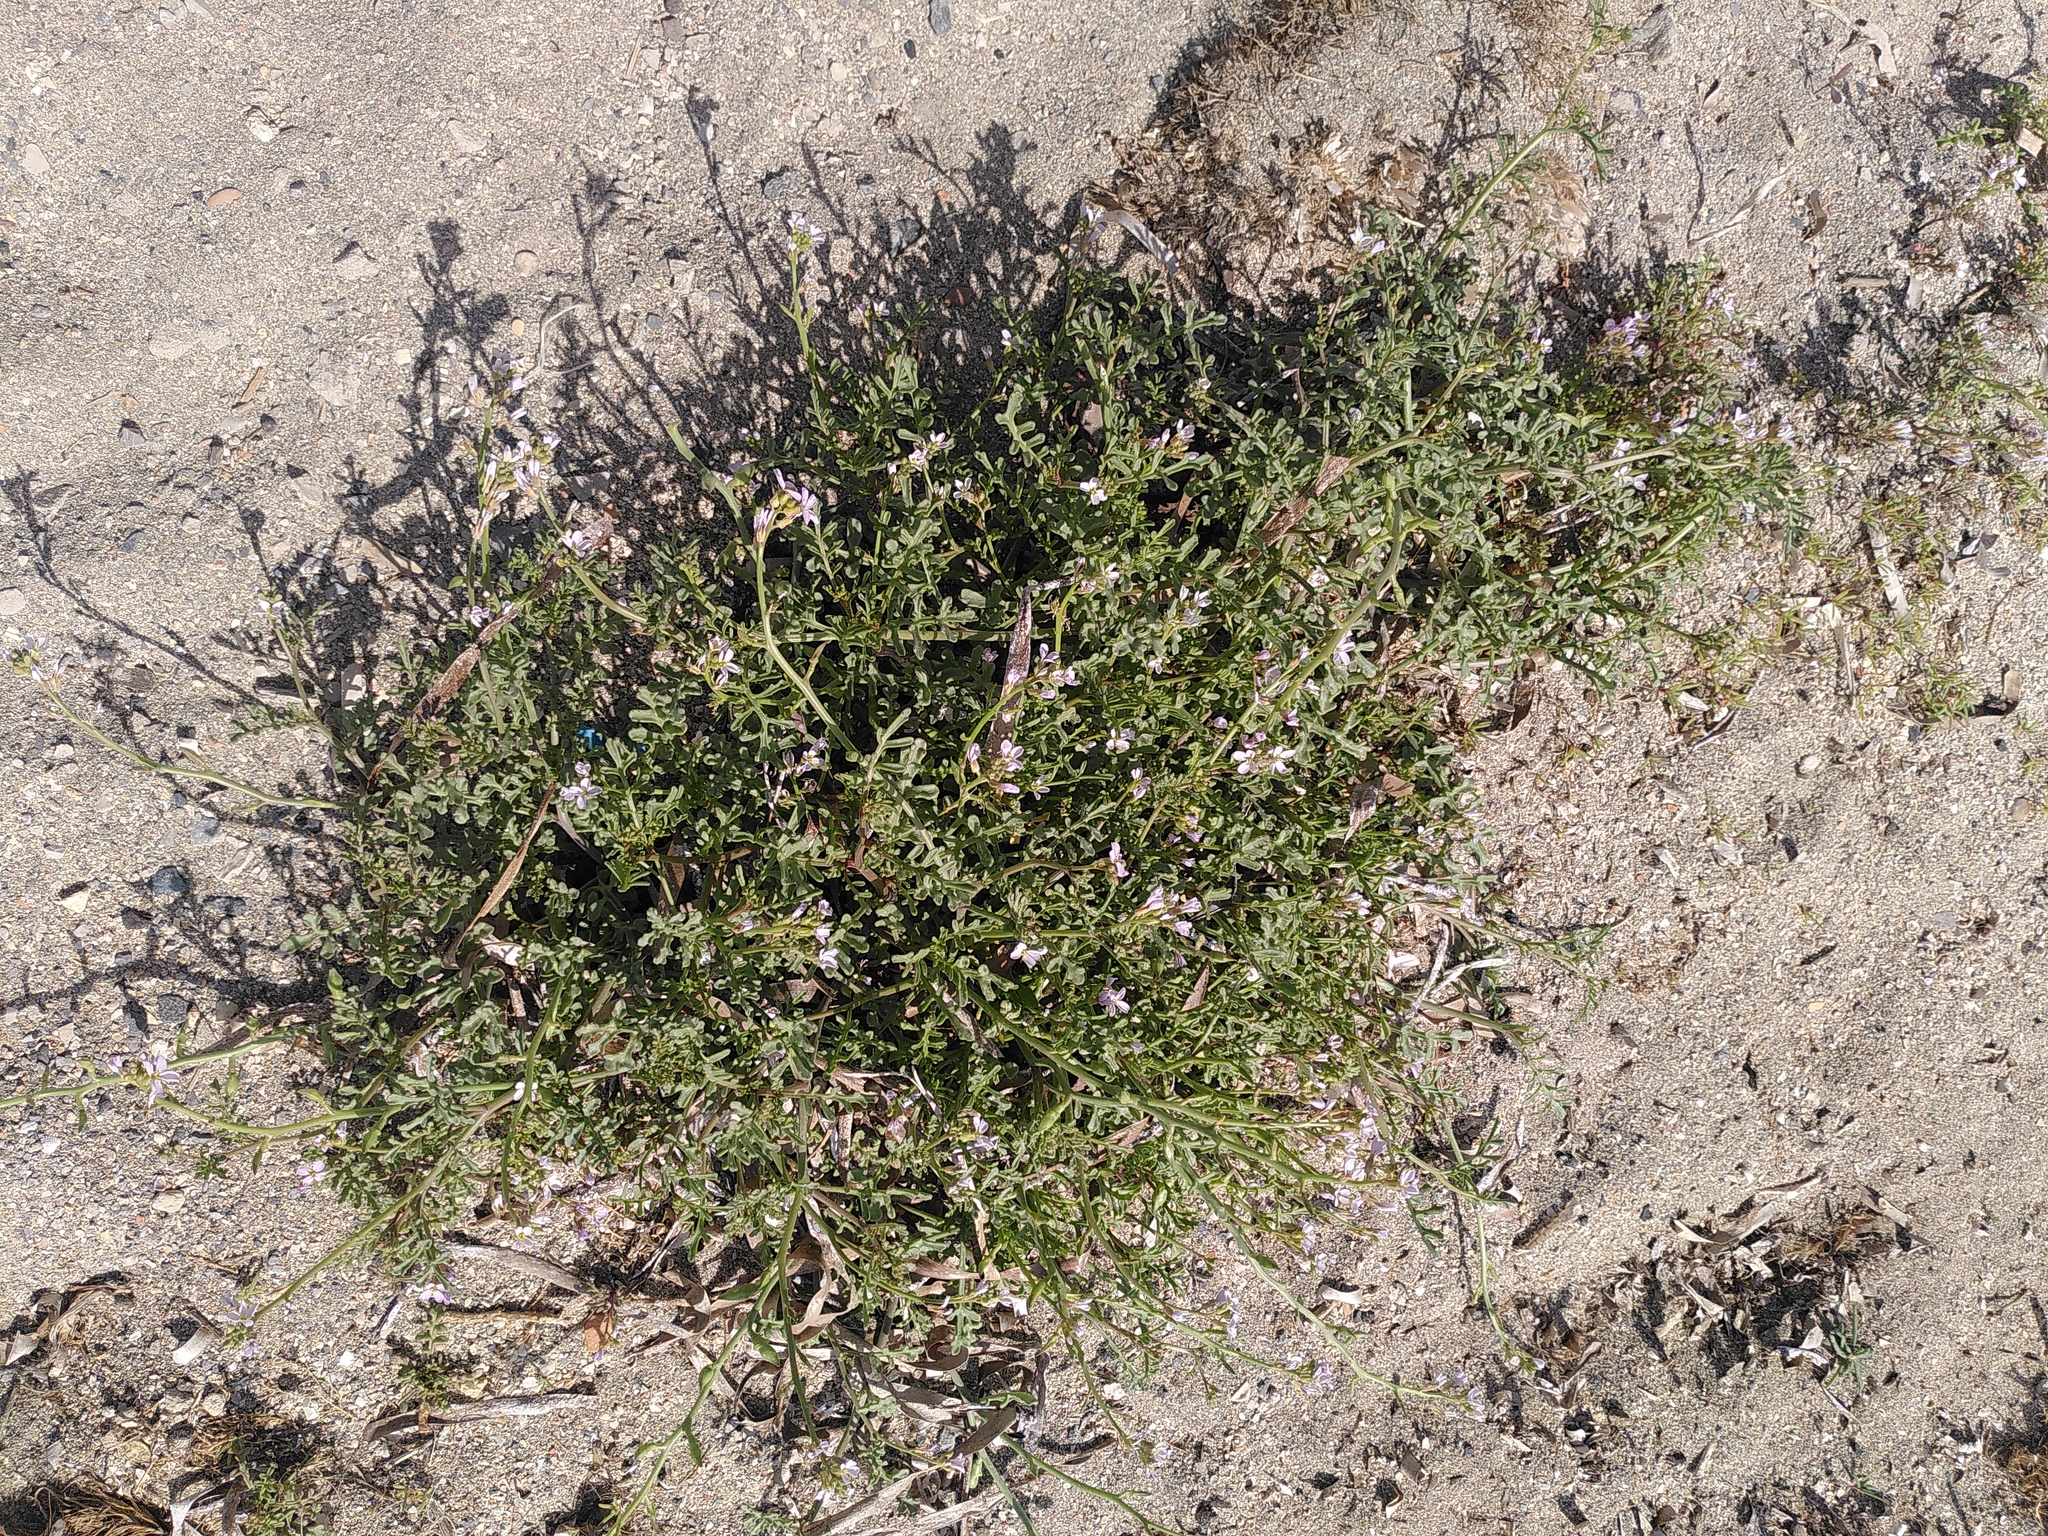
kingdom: Plantae
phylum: Tracheophyta
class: Magnoliopsida
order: Brassicales
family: Brassicaceae
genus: Cakile
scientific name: Cakile maritima
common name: Sea rocket
